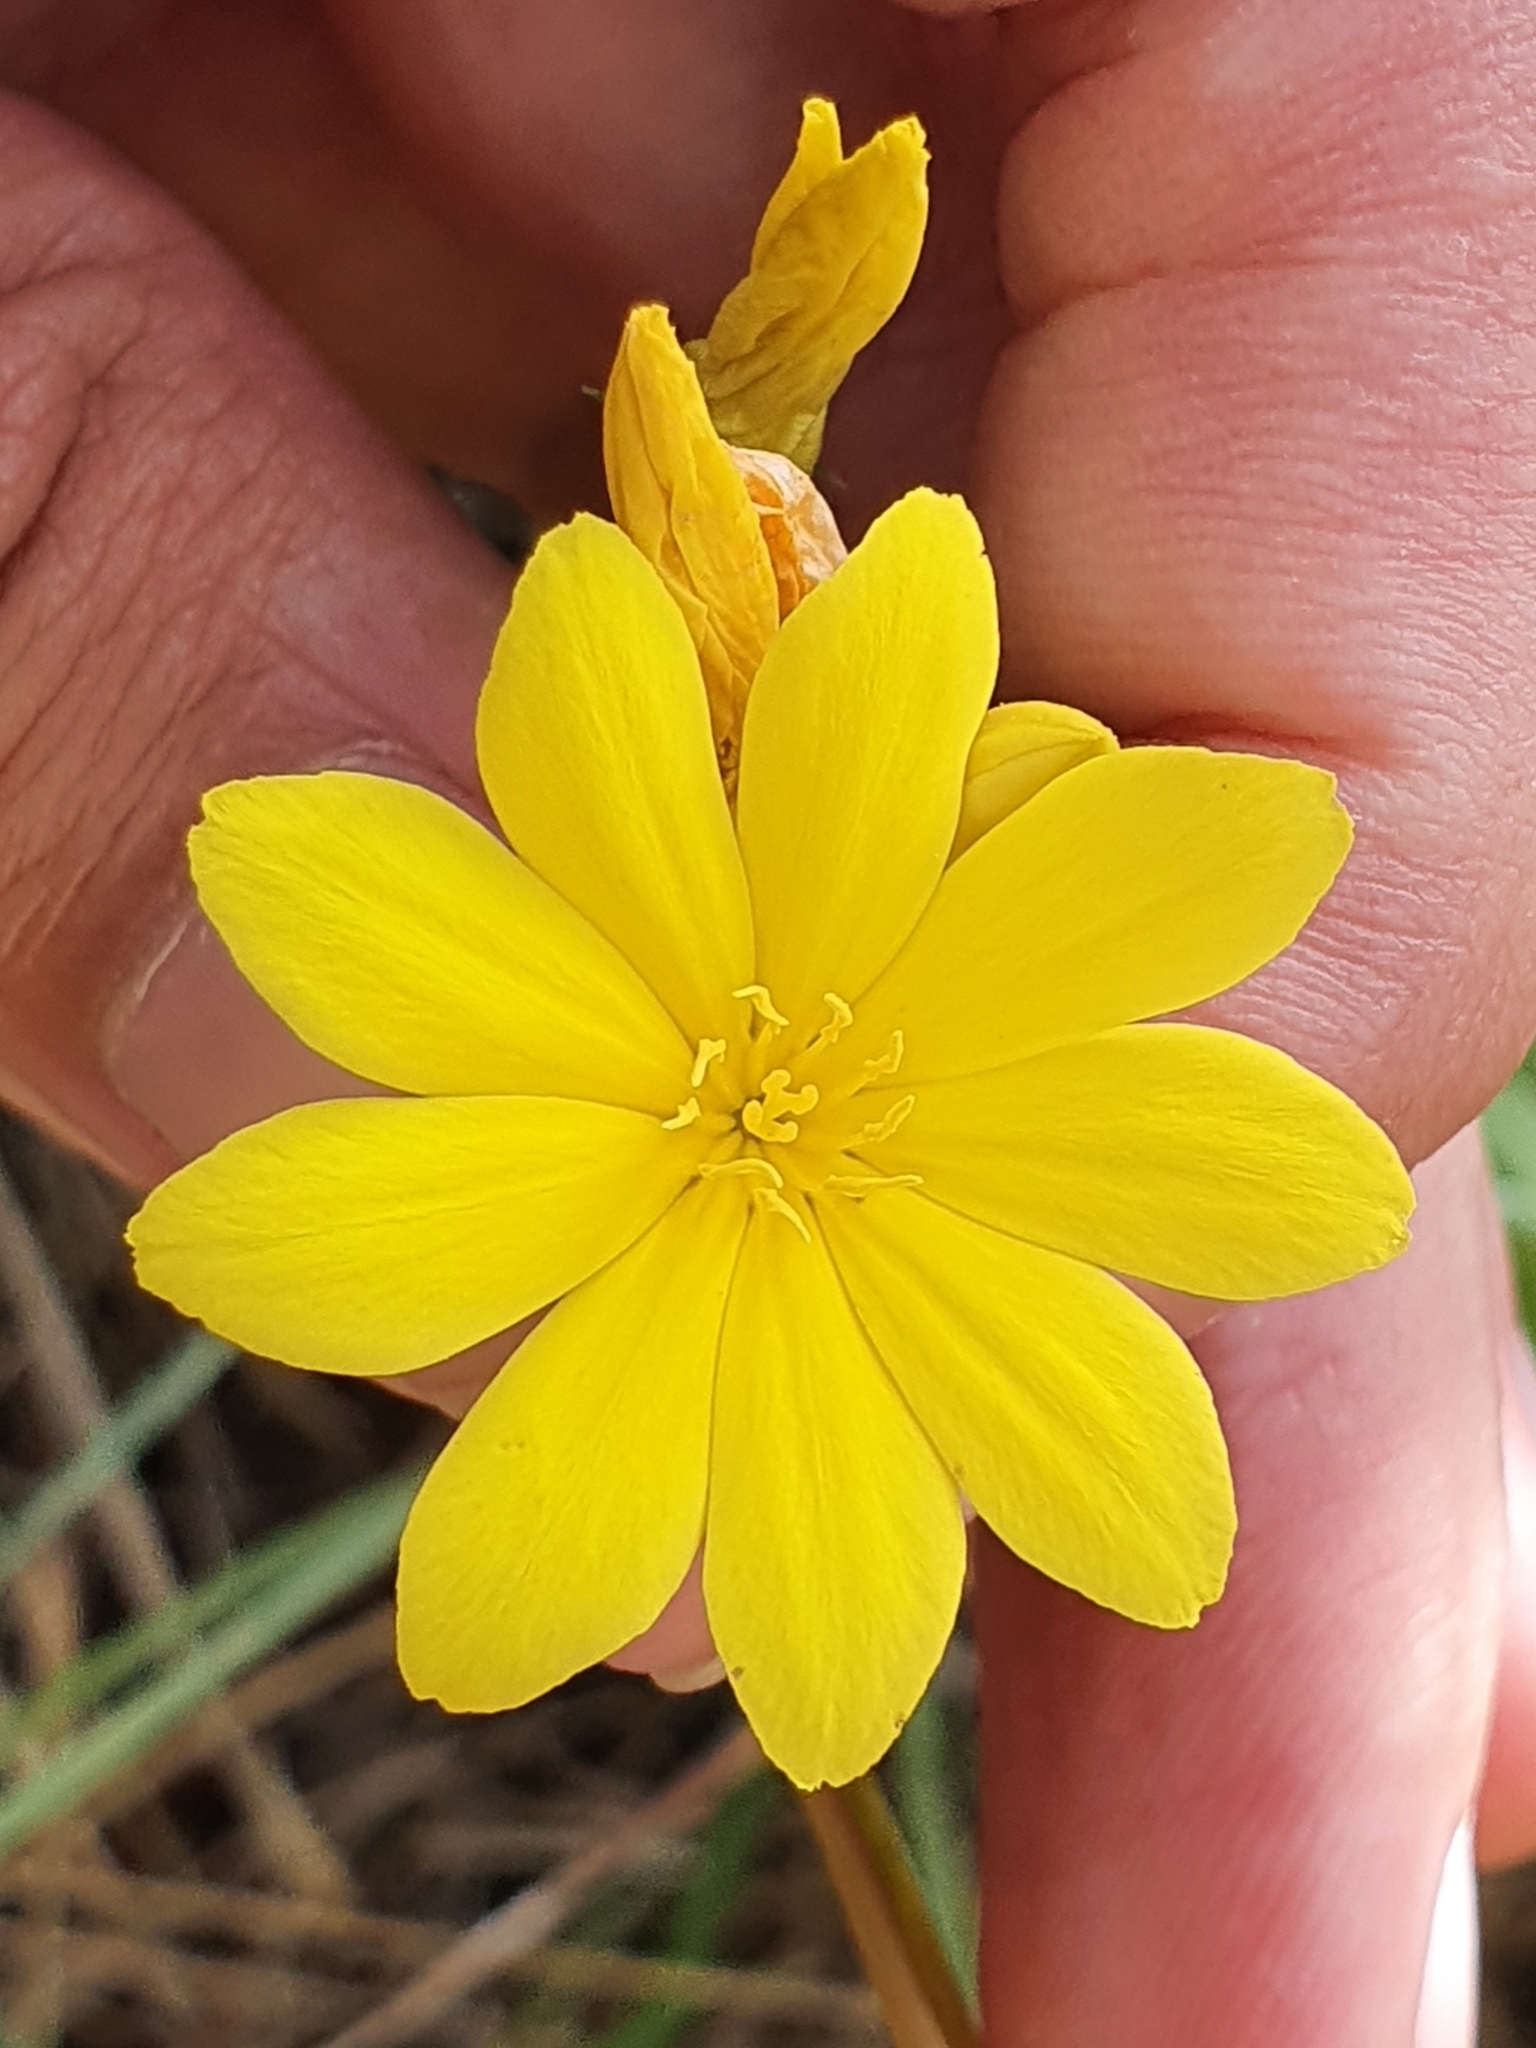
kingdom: Plantae
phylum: Tracheophyta
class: Magnoliopsida
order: Gentianales
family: Gentianaceae
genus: Blackstonia
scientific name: Blackstonia grandiflora
